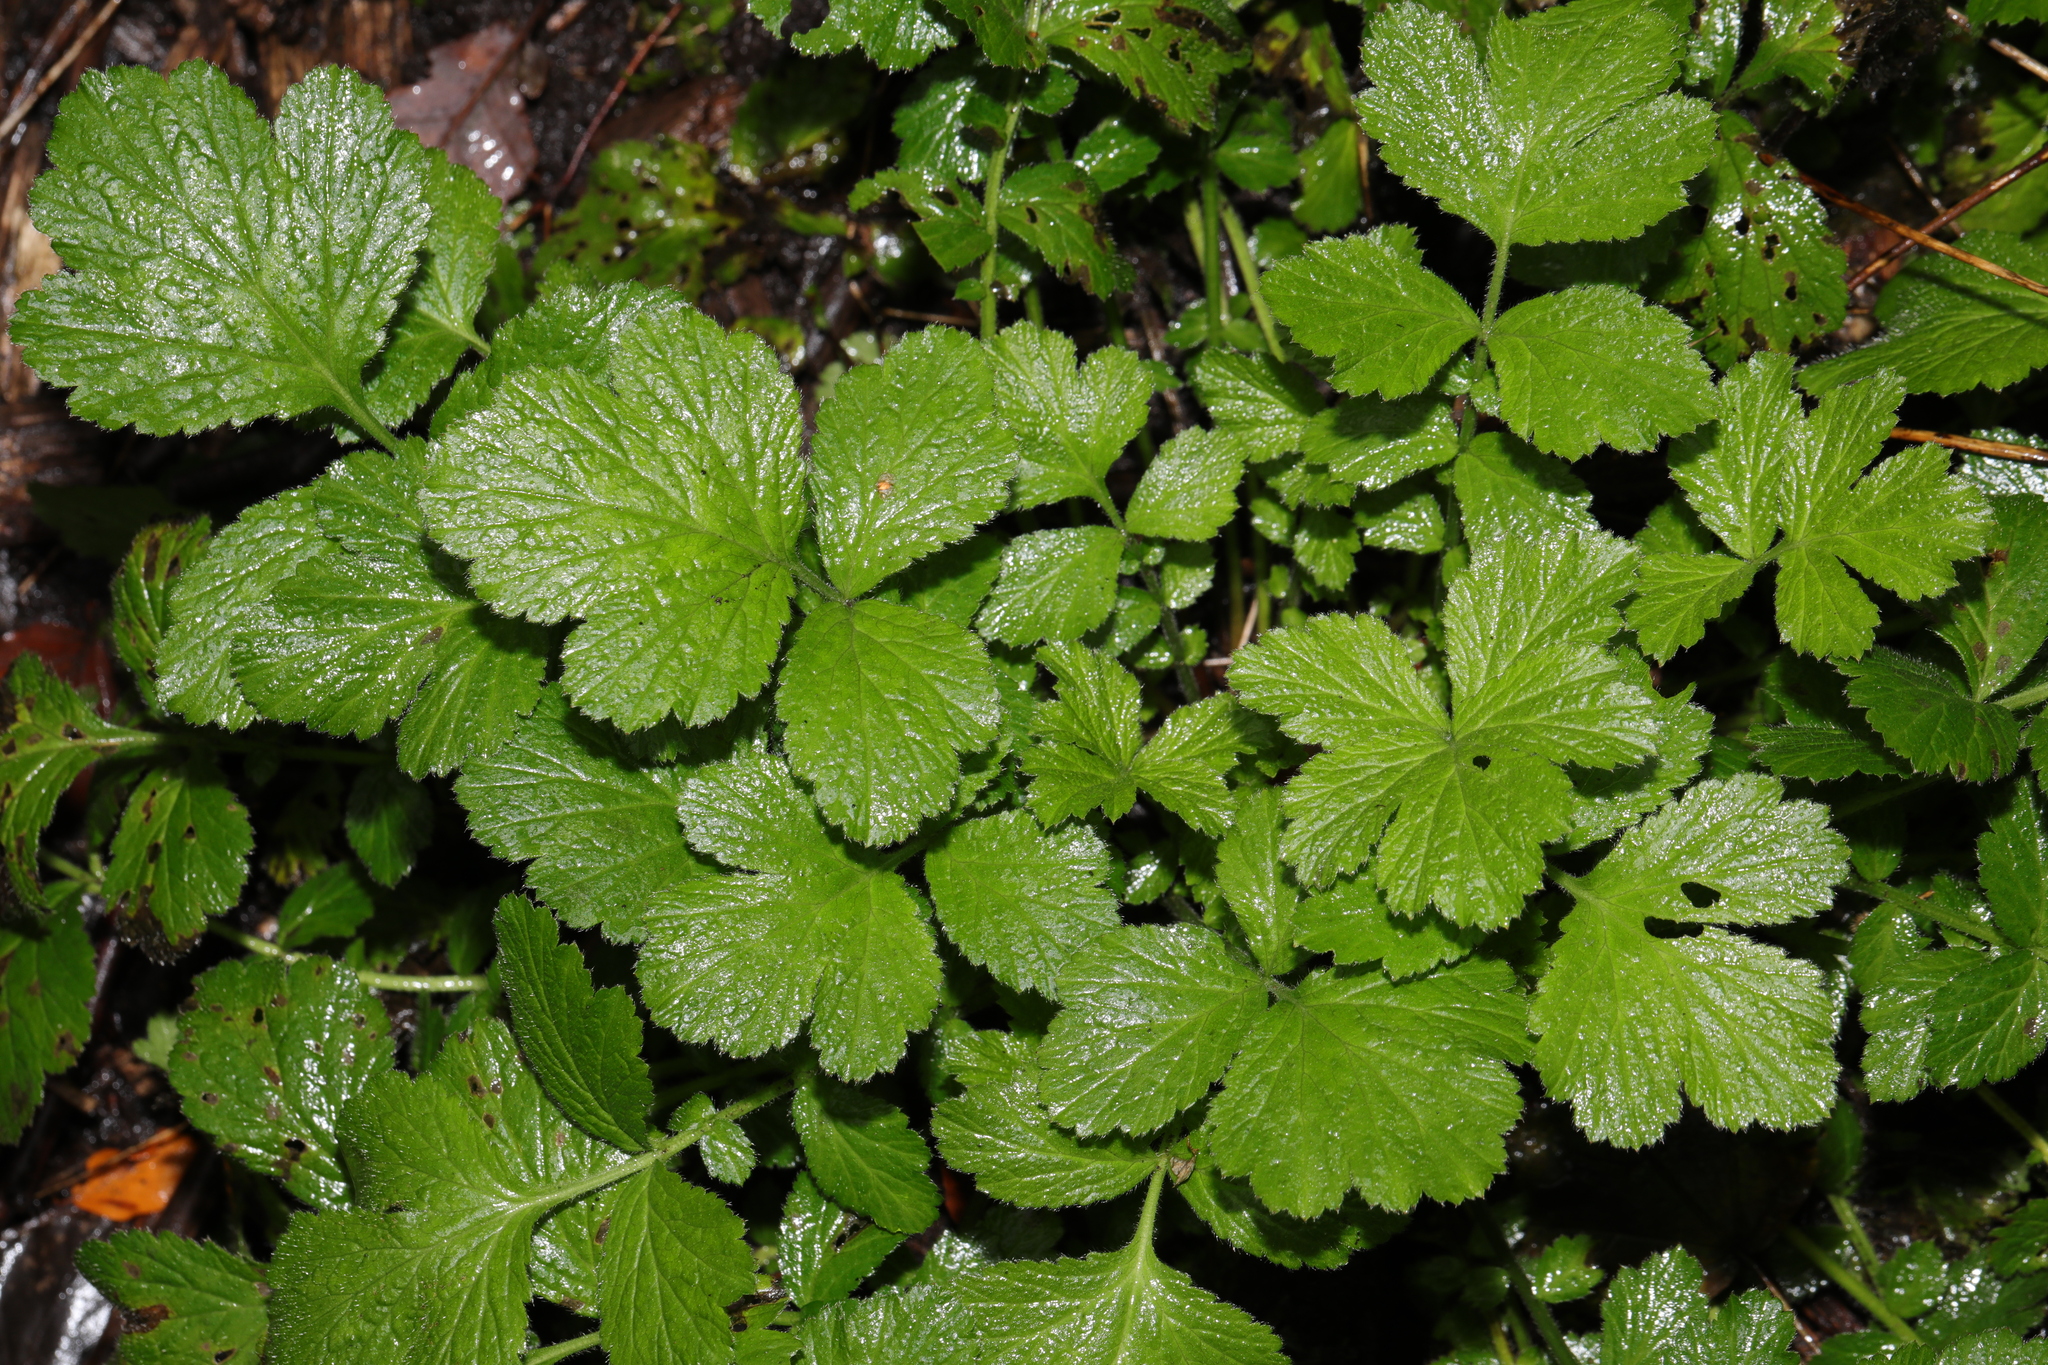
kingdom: Plantae
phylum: Tracheophyta
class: Magnoliopsida
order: Rosales
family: Rosaceae
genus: Geum
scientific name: Geum urbanum
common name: Wood avens
